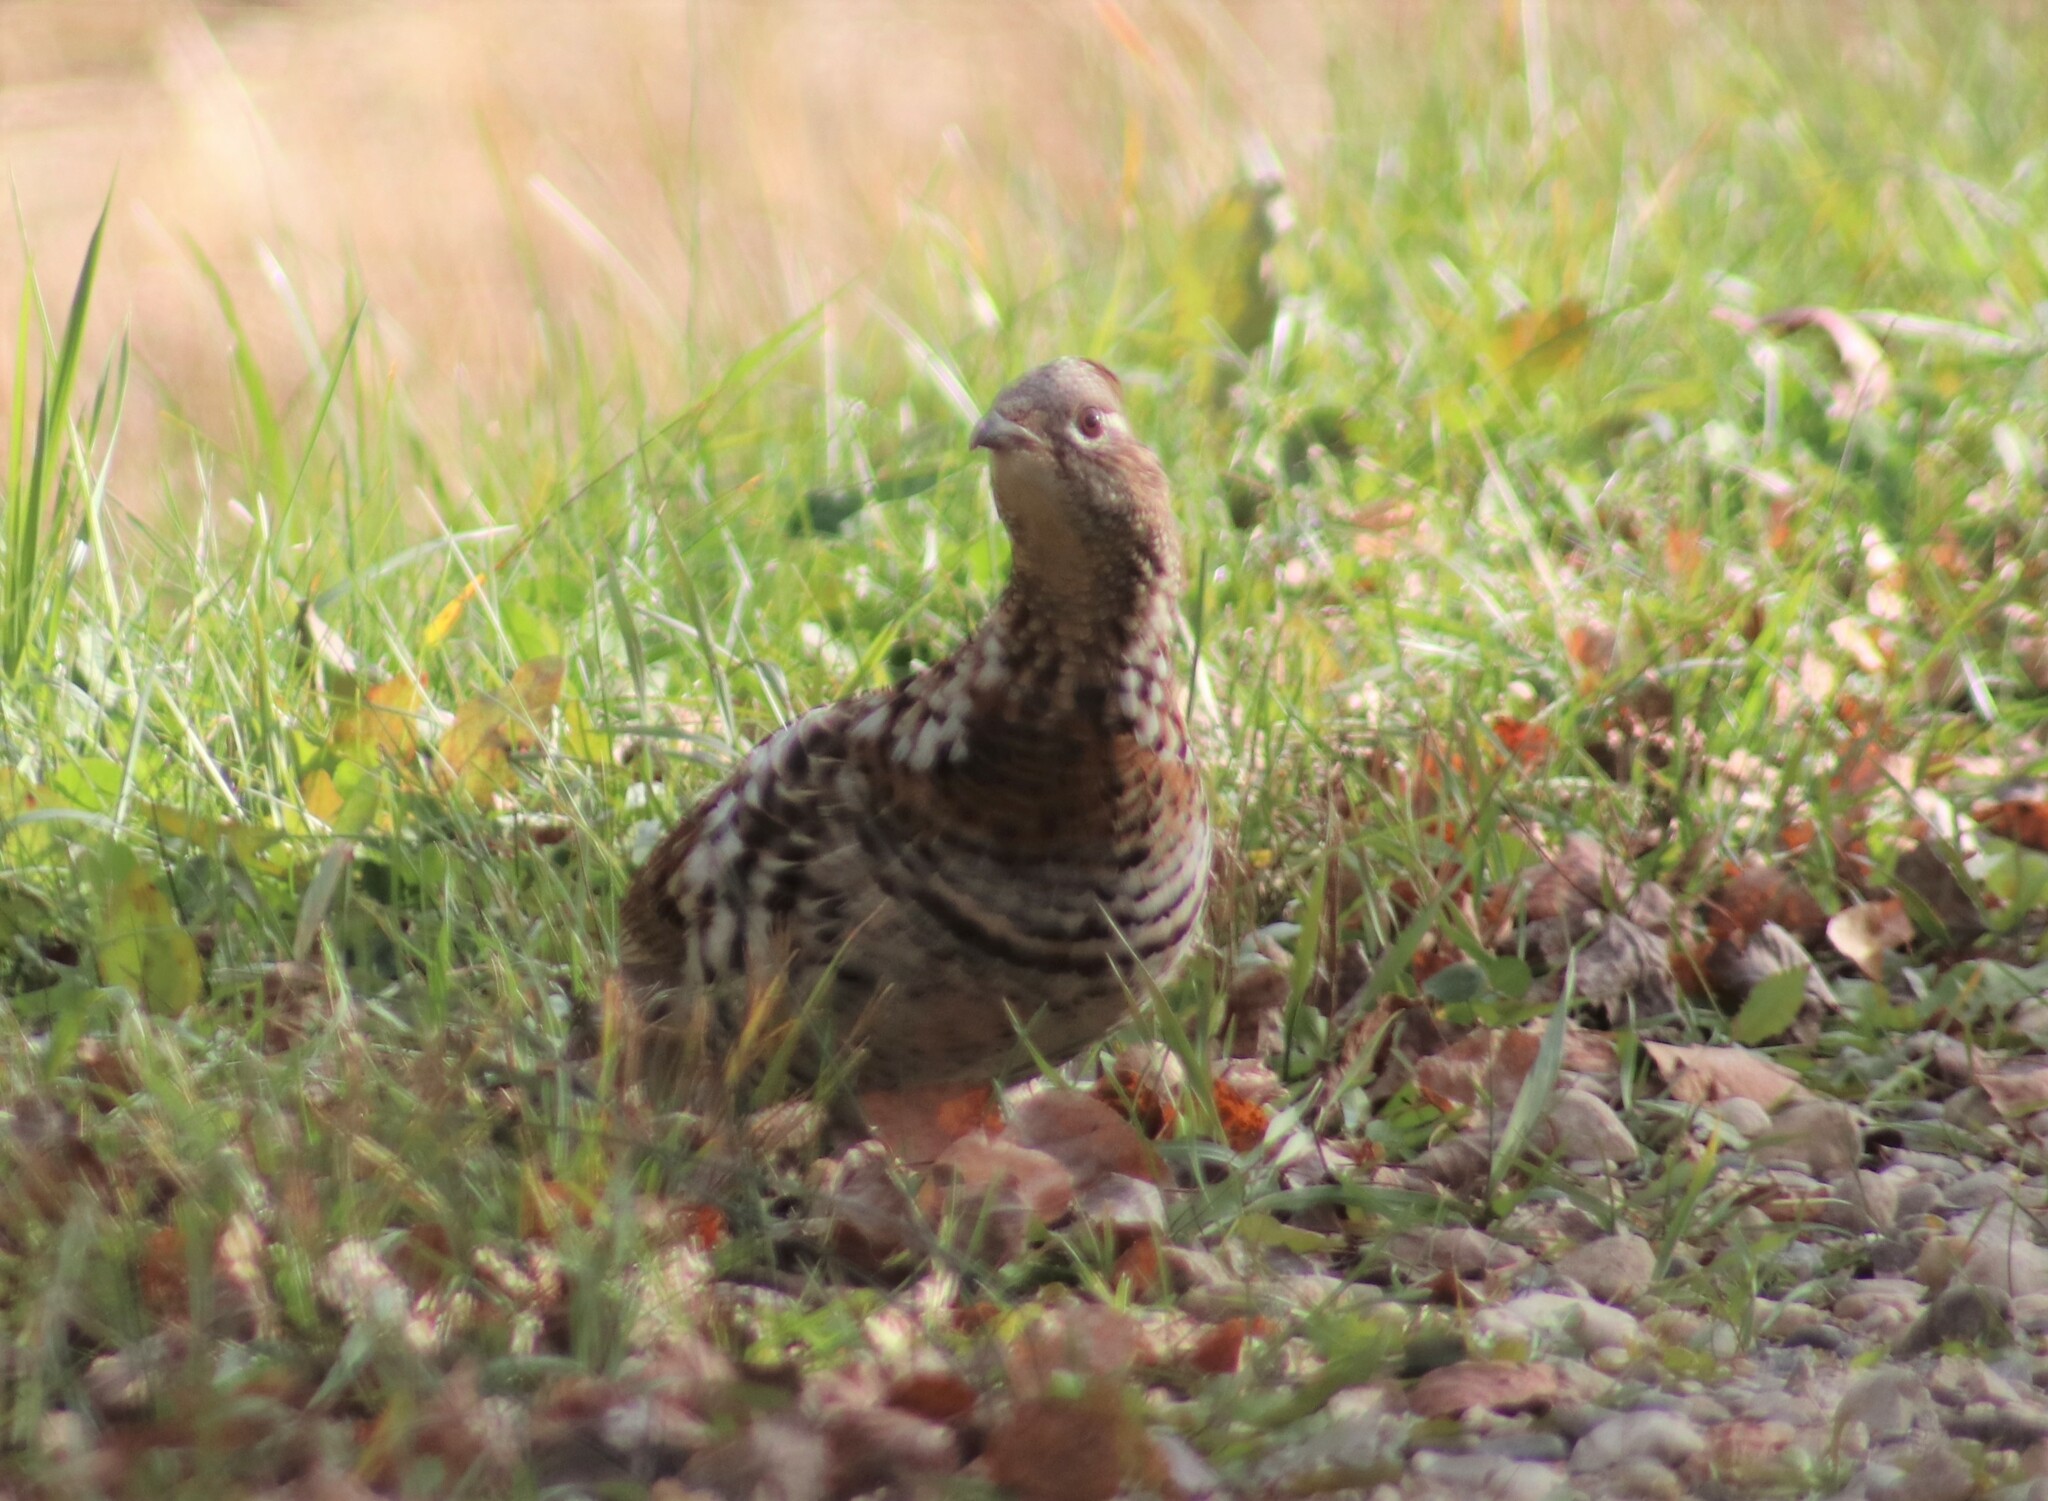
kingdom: Animalia
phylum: Chordata
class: Aves
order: Galliformes
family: Phasianidae
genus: Bonasa
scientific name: Bonasa umbellus
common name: Ruffed grouse
